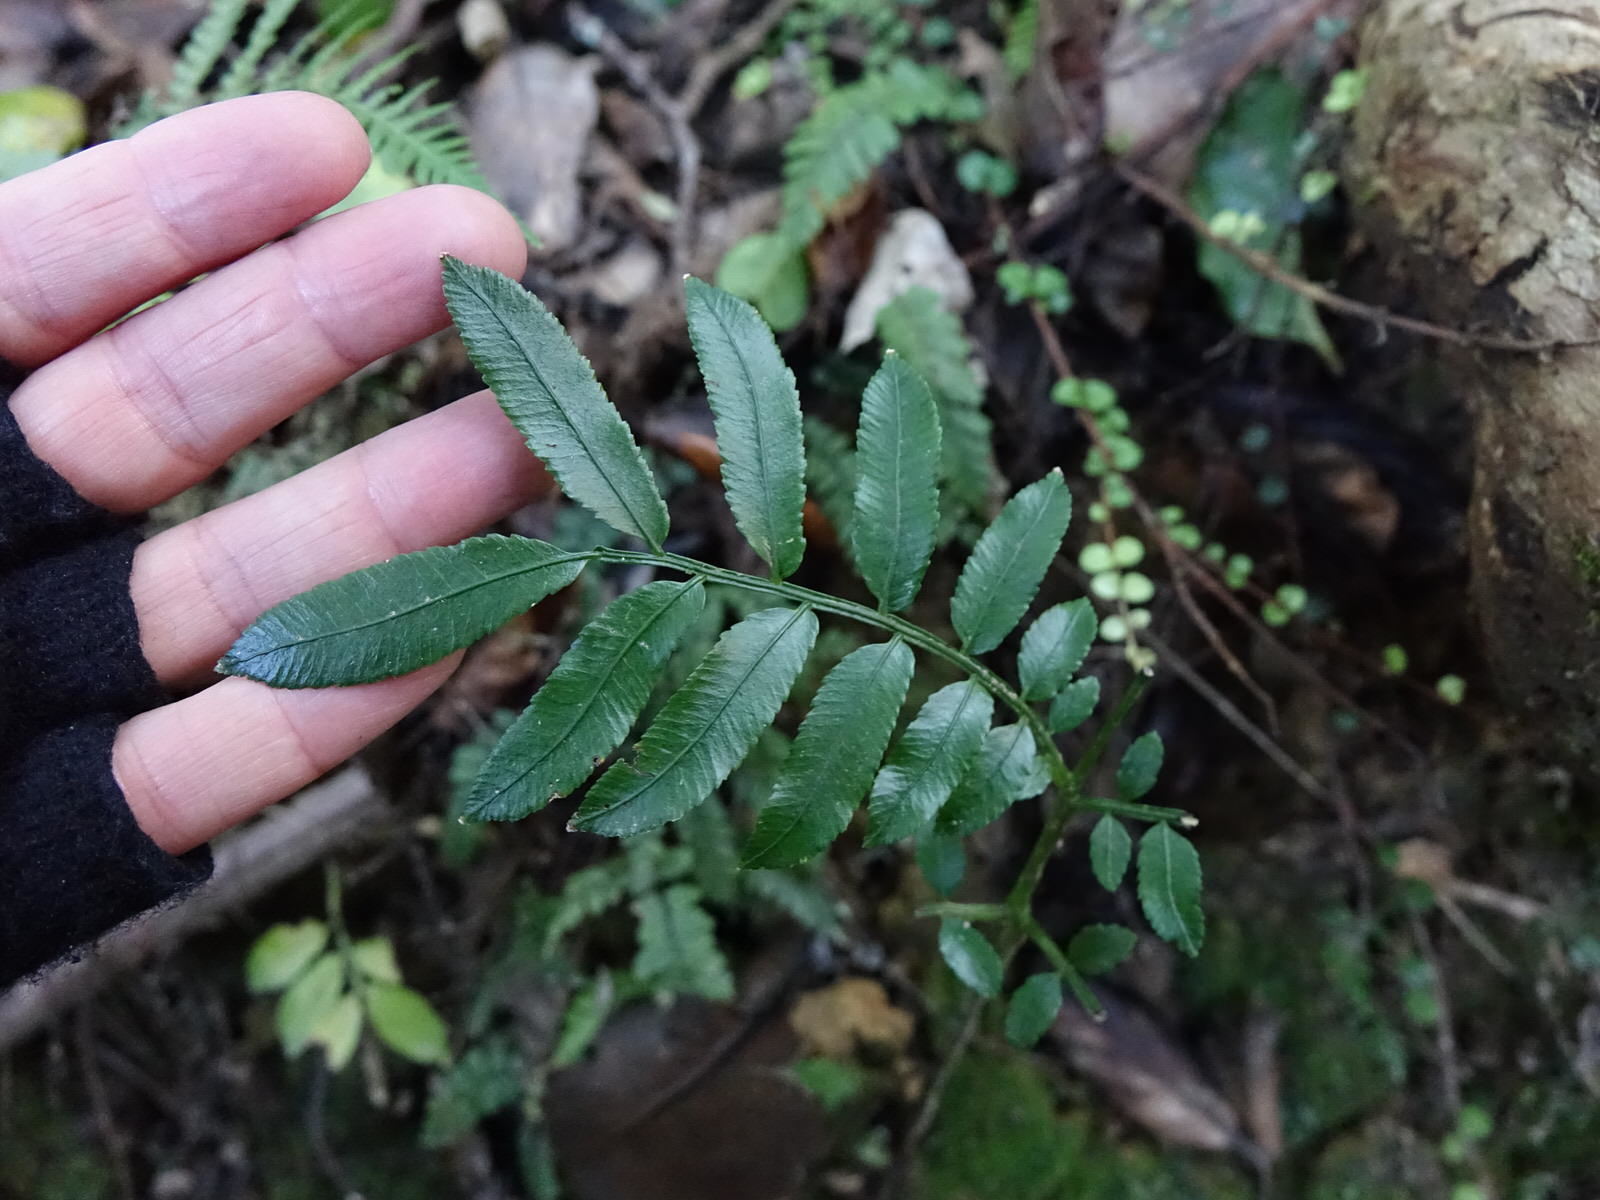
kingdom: Plantae
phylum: Tracheophyta
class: Polypodiopsida
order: Marattiales
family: Marattiaceae
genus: Ptisana
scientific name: Ptisana salicina
